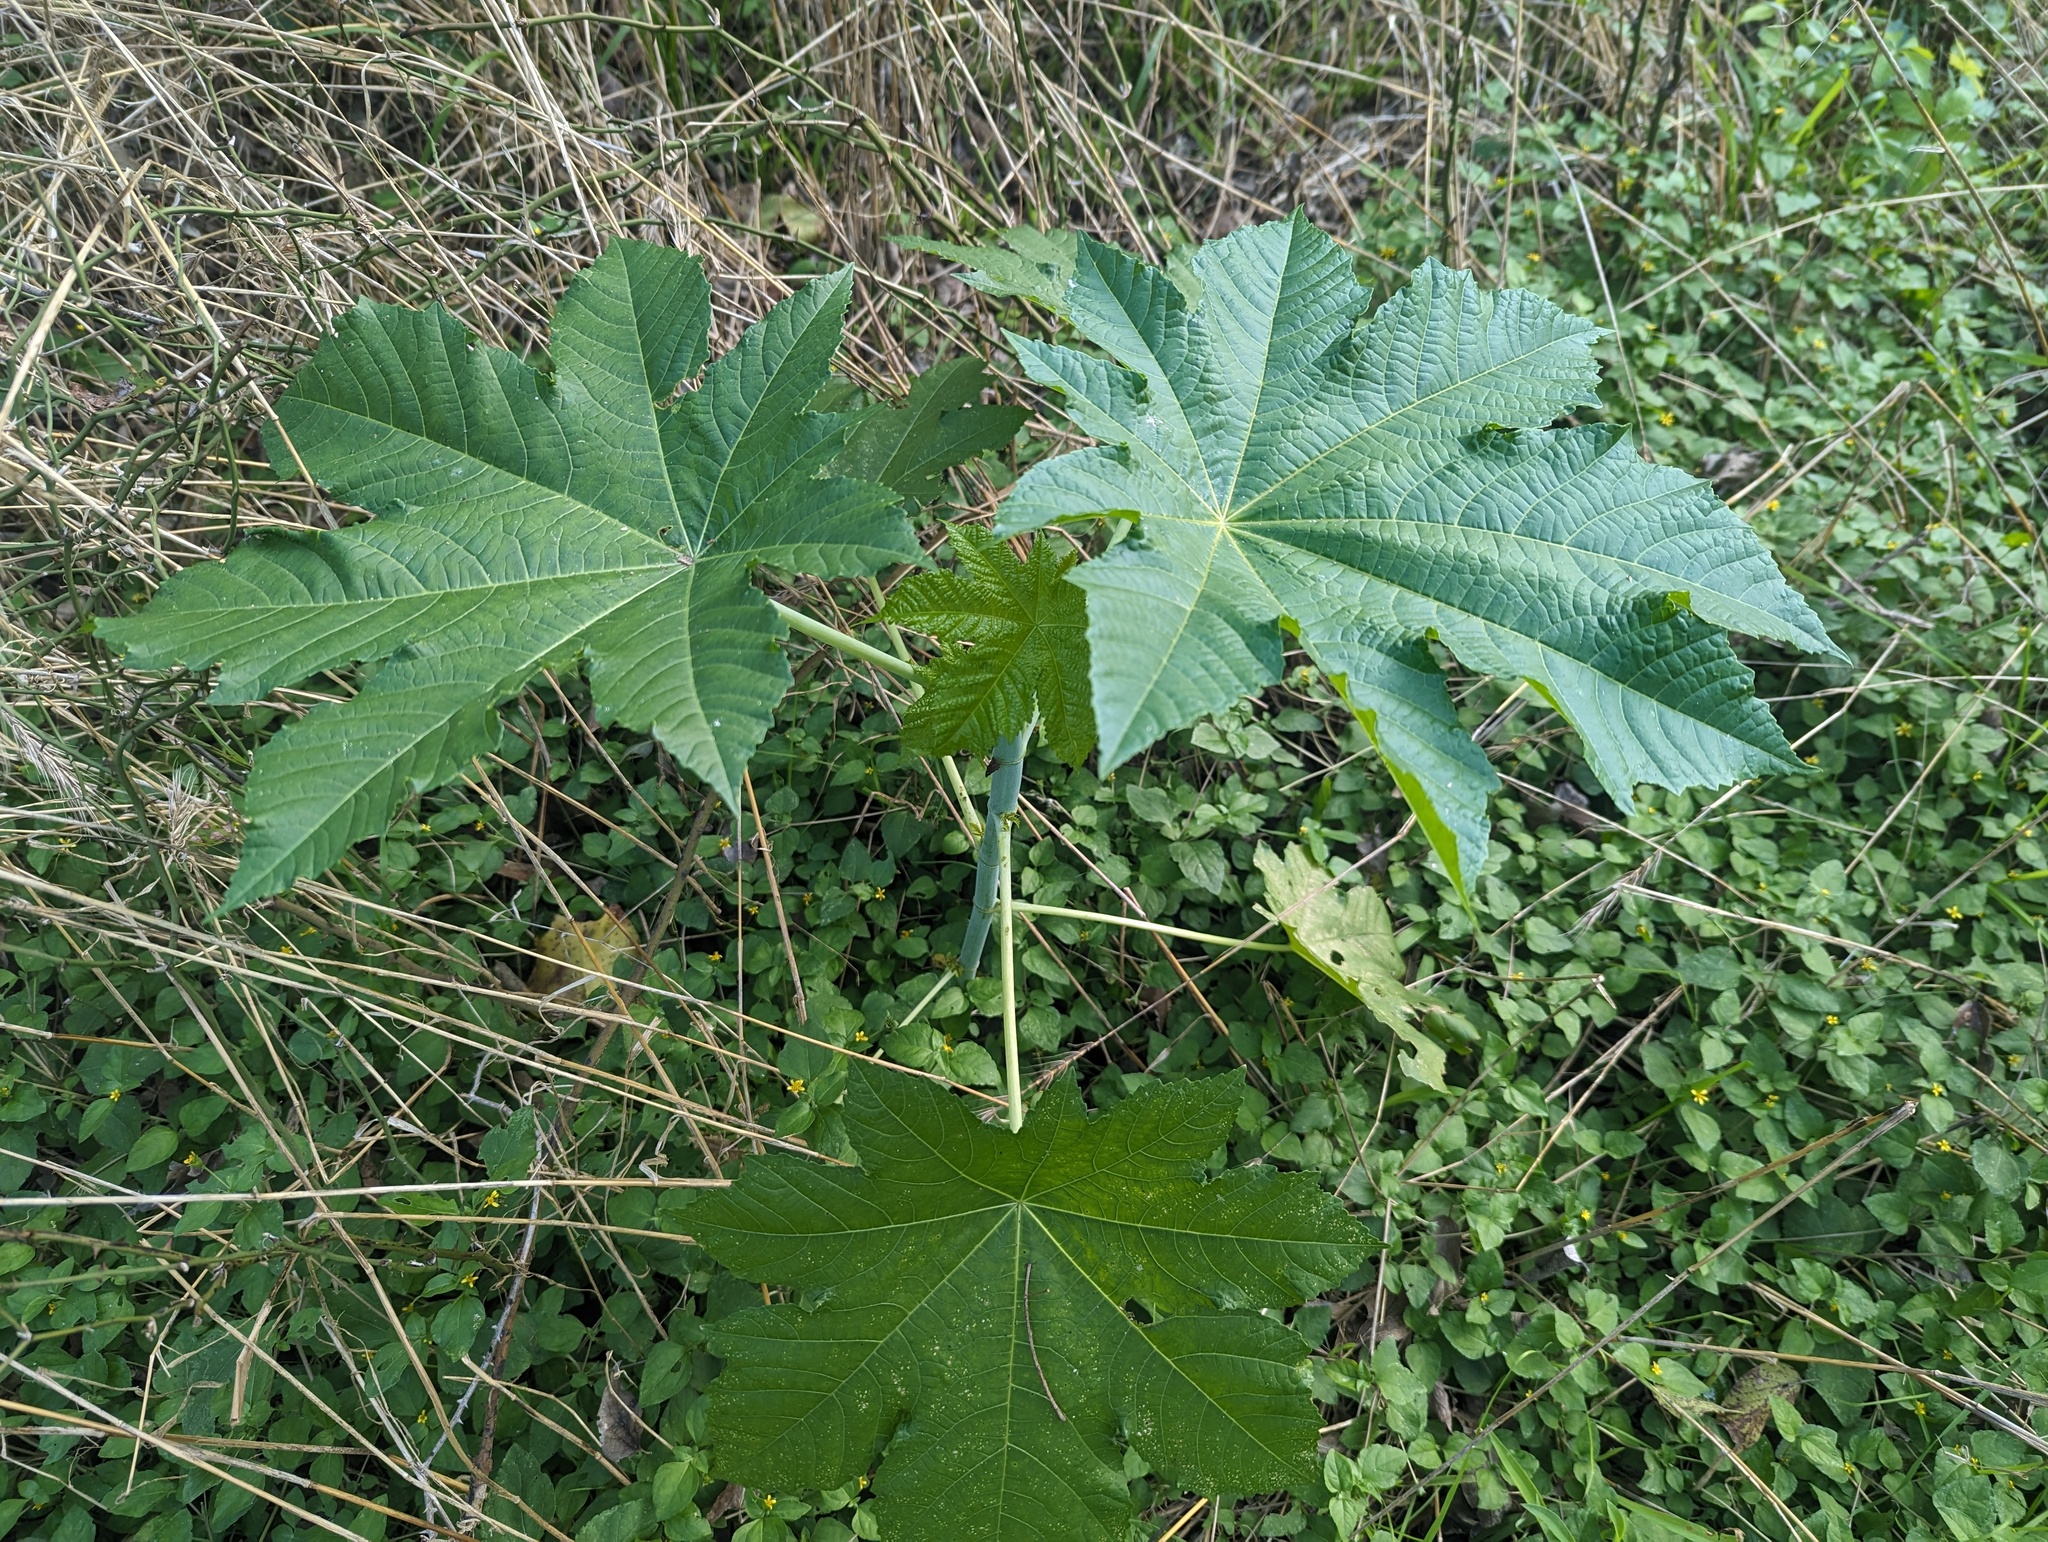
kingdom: Plantae
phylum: Tracheophyta
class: Magnoliopsida
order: Malpighiales
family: Euphorbiaceae
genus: Ricinus
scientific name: Ricinus communis
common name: Castor-oil-plant
